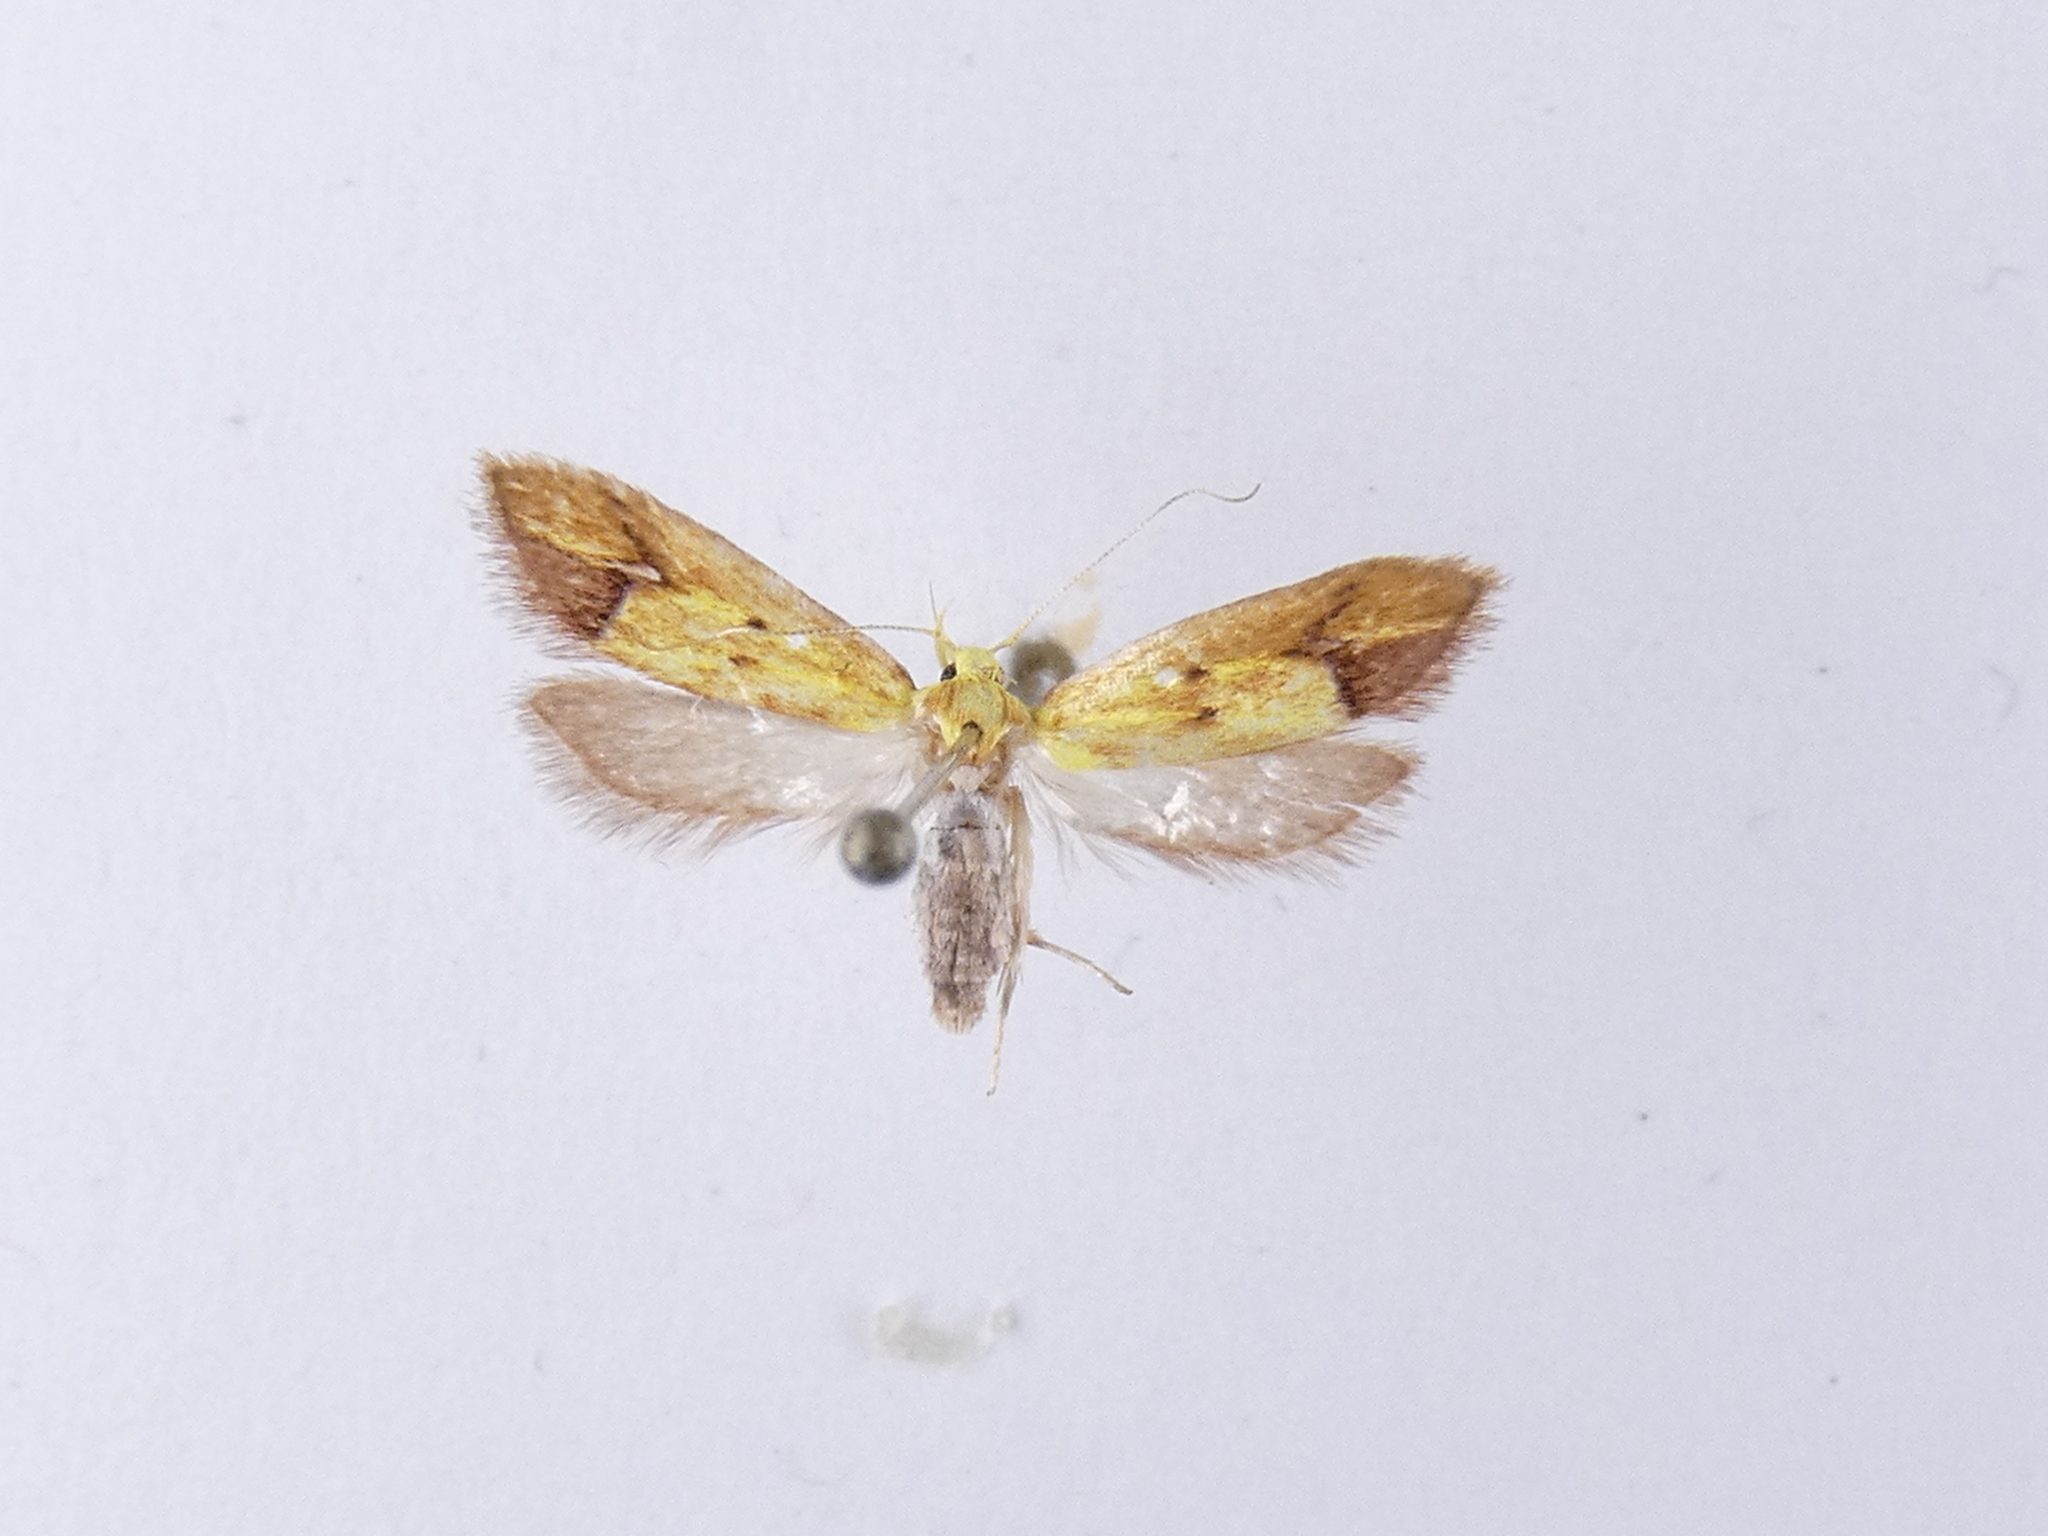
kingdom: Animalia
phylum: Arthropoda
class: Insecta
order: Lepidoptera
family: Oecophoridae
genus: Gymnobathra
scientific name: Gymnobathra flavidella
